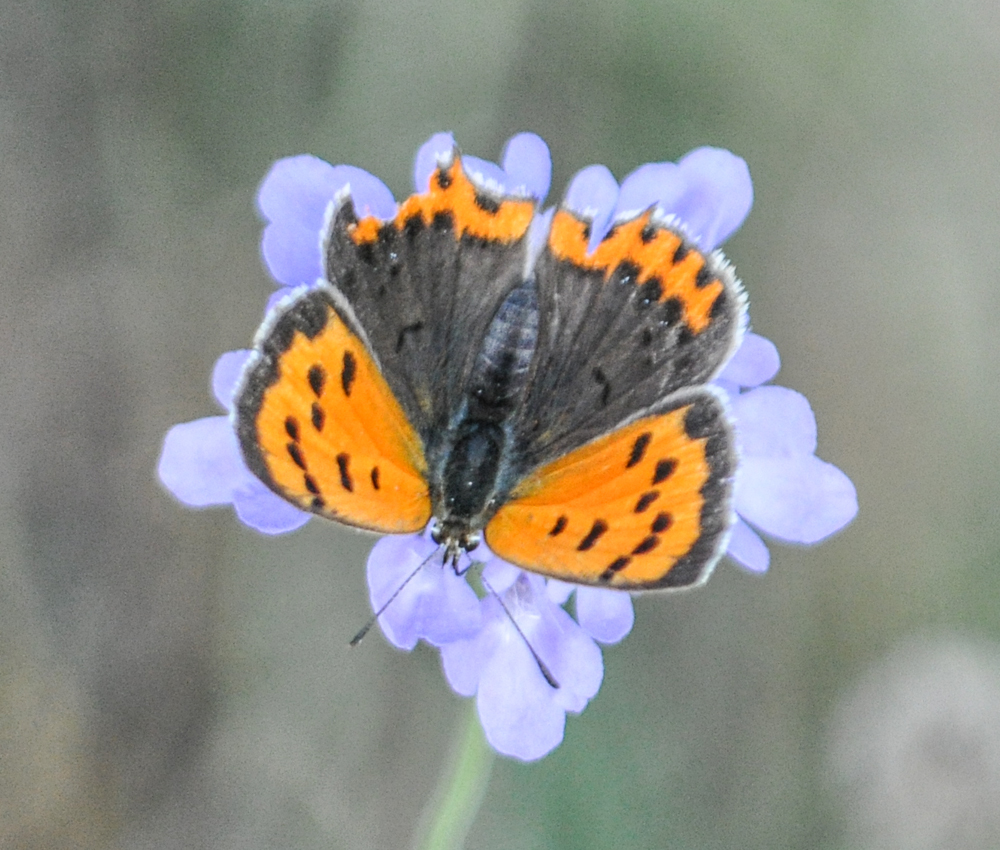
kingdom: Animalia
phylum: Arthropoda
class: Insecta
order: Lepidoptera
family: Lycaenidae
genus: Lycaena
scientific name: Lycaena phlaeas
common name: Small copper
